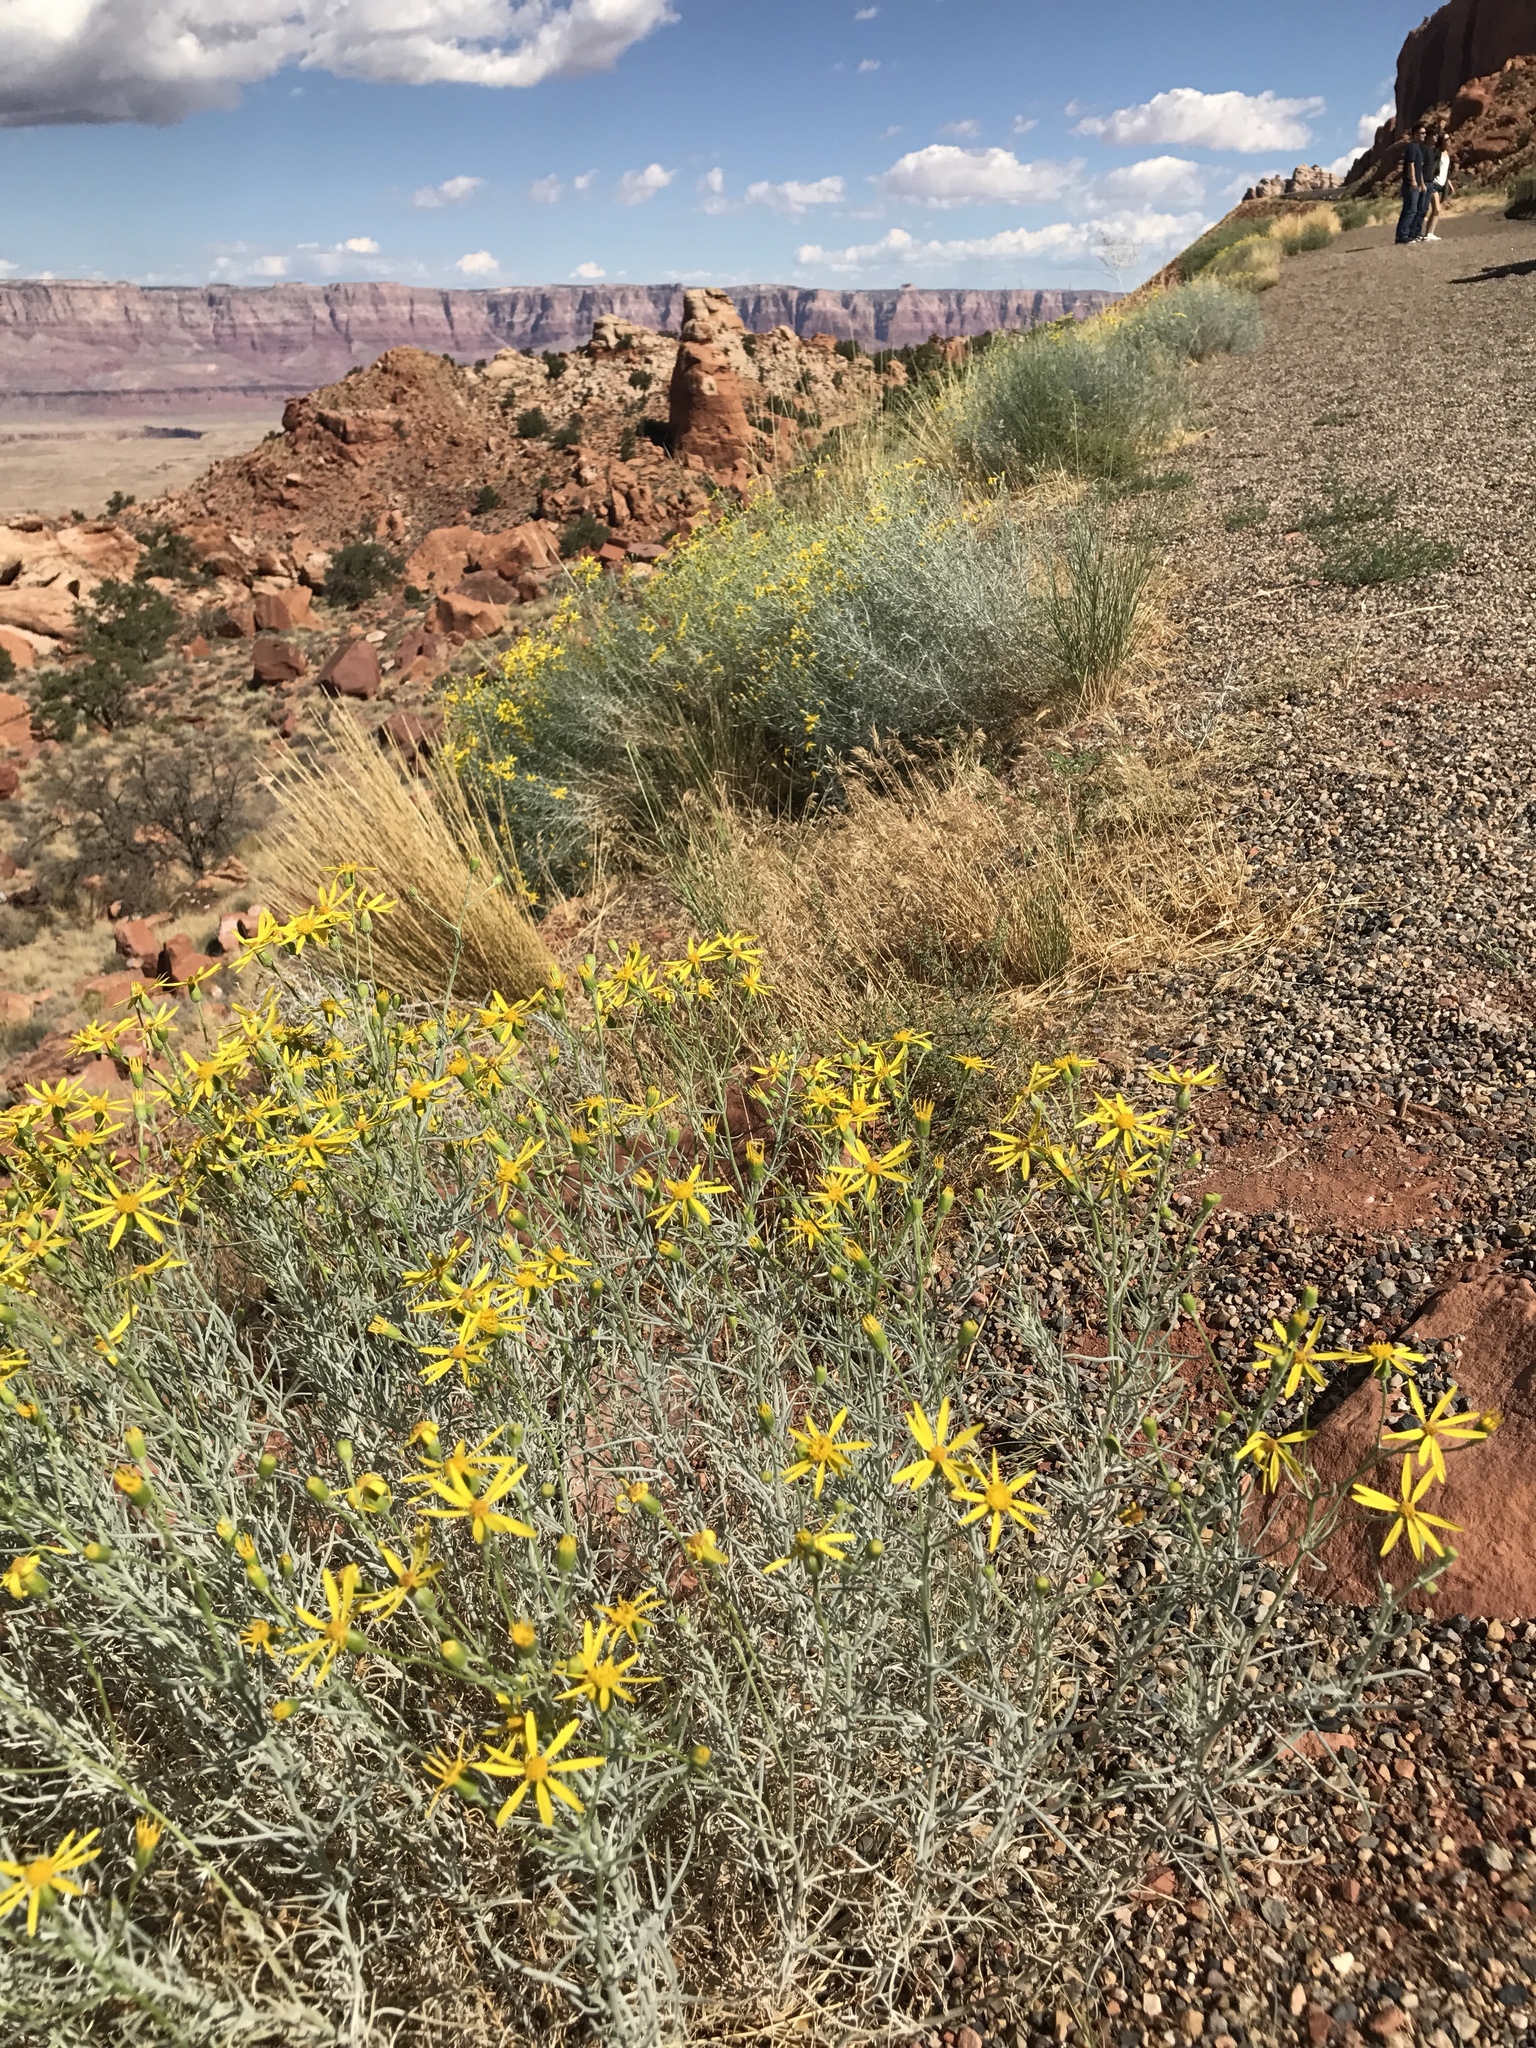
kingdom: Plantae
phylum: Tracheophyta
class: Magnoliopsida
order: Asterales
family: Asteraceae
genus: Senecio
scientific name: Senecio spartioides
